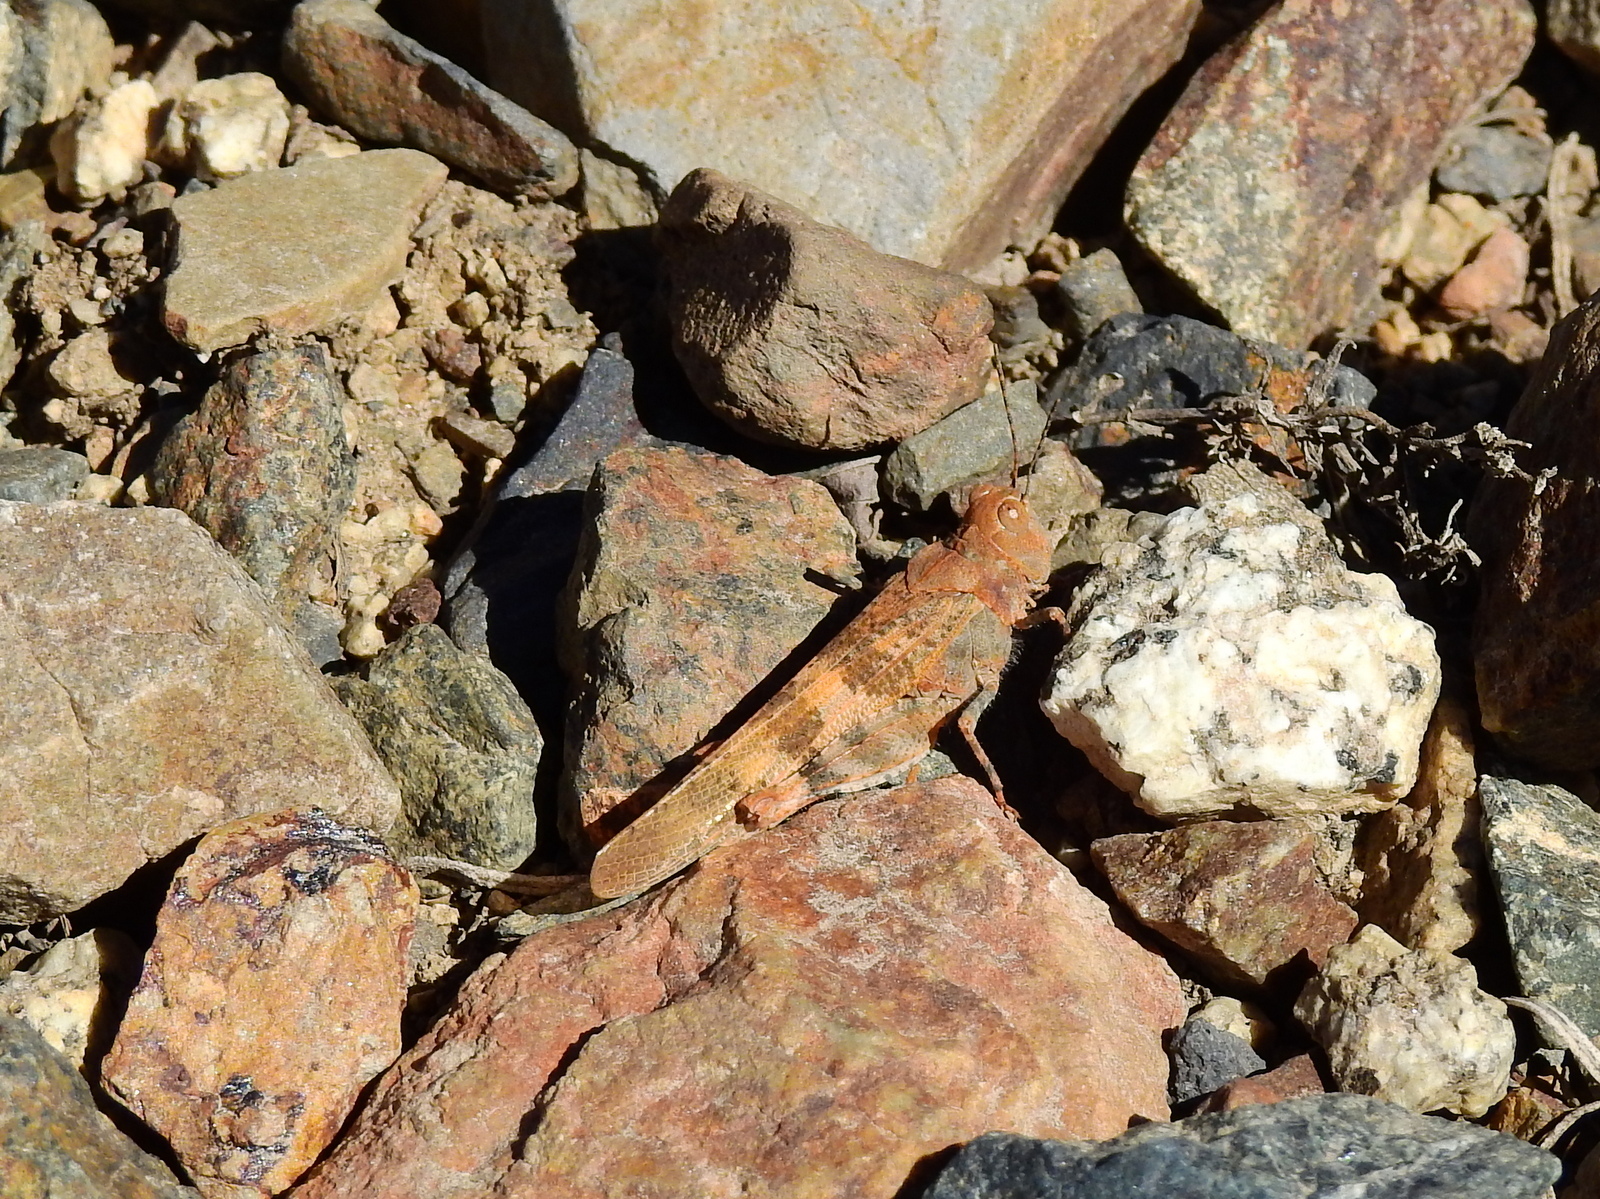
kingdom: Animalia
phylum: Arthropoda
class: Insecta
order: Orthoptera
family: Acrididae
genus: Trimerotropis
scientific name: Trimerotropis pallidipennis
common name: Pallid-winged grasshopper
